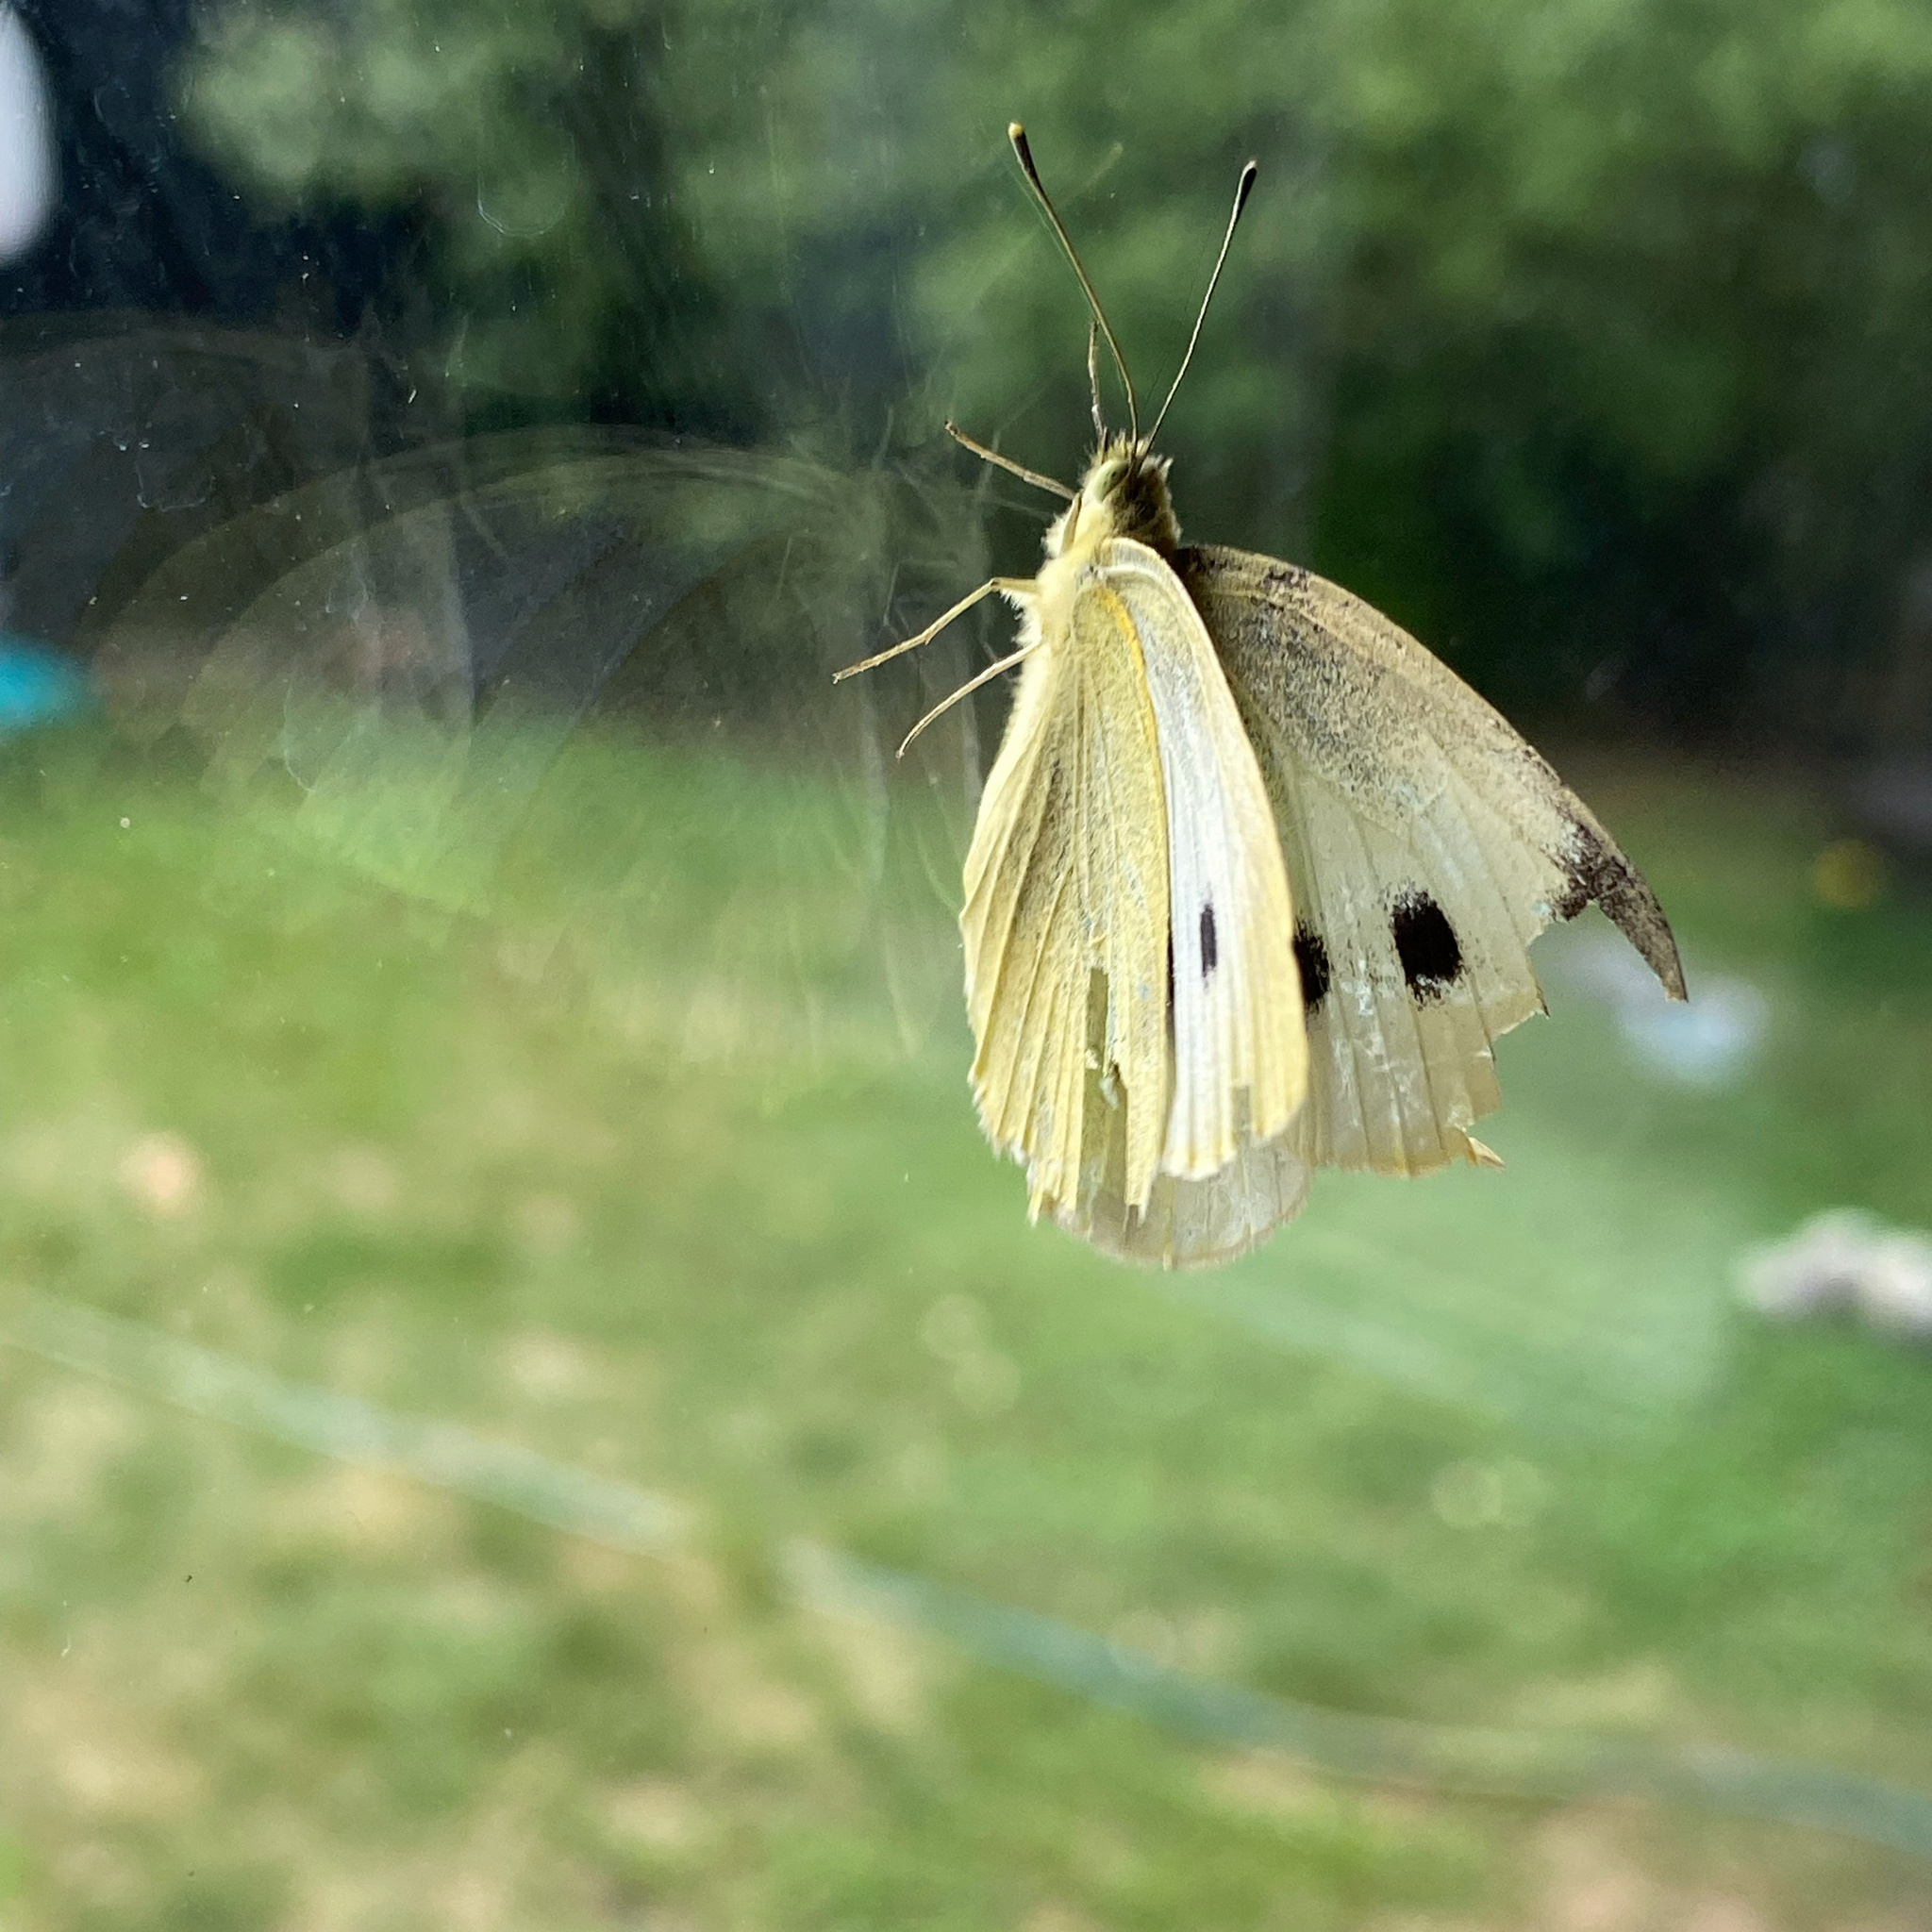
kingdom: Animalia
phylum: Arthropoda
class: Insecta
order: Lepidoptera
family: Pieridae
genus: Pieris
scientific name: Pieris rapae
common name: Small white
